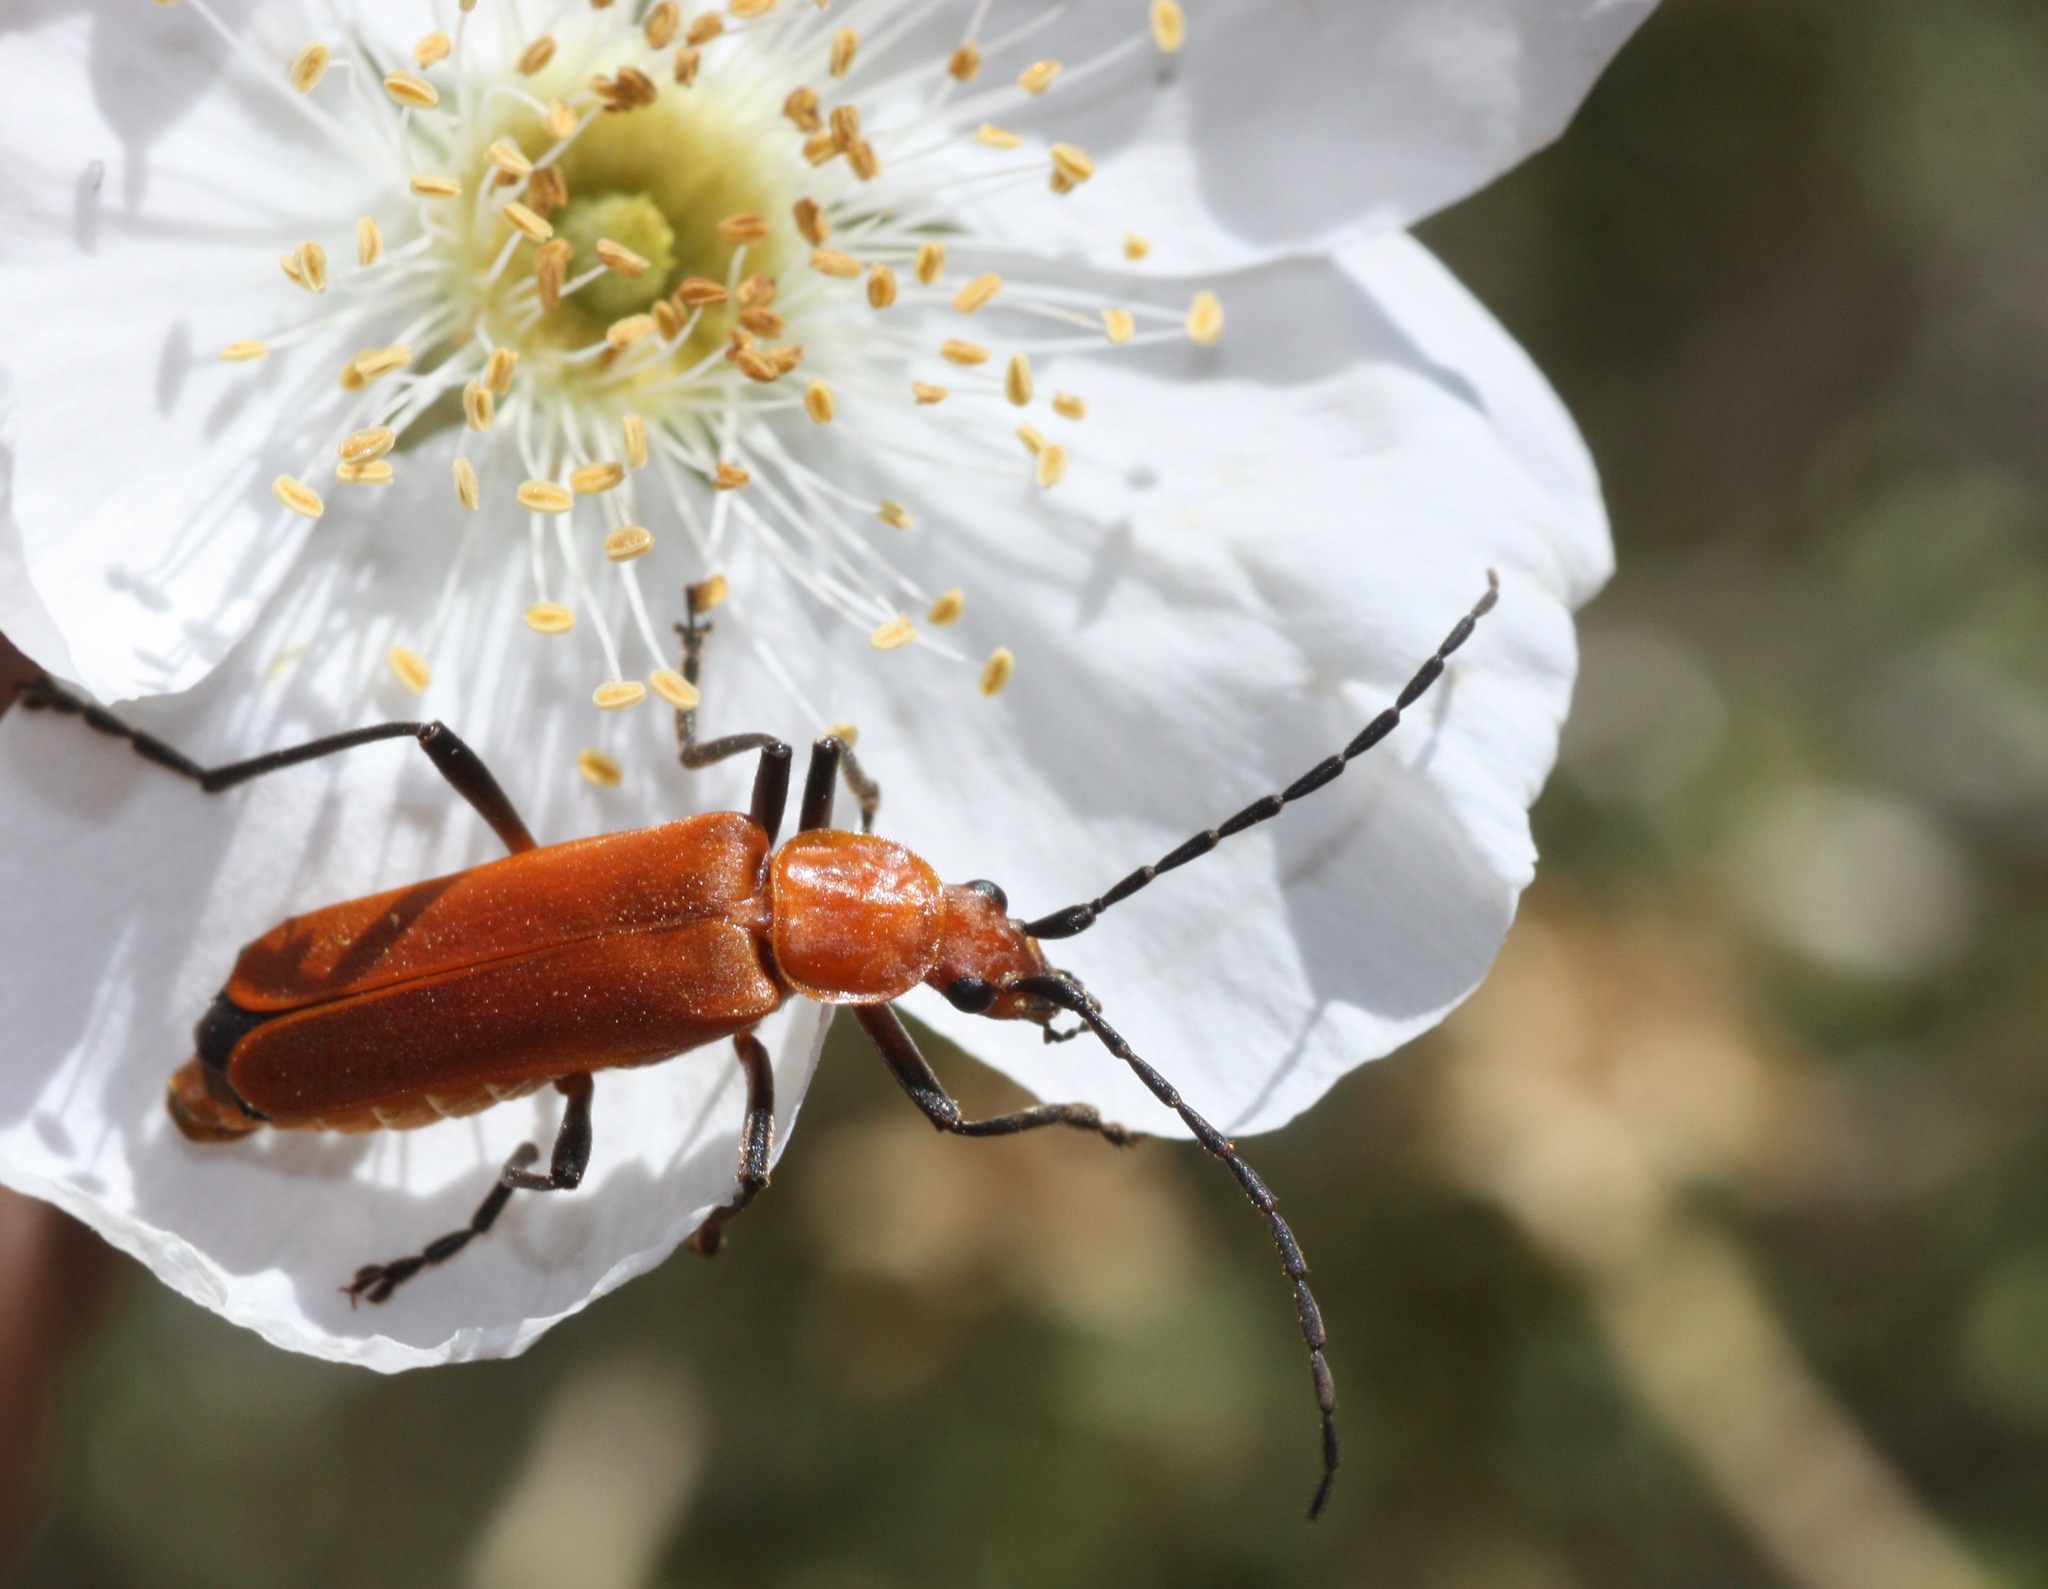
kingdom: Animalia
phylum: Arthropoda
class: Insecta
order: Coleoptera
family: Cantharidae
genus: Chauliognathus
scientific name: Chauliognathus discus
